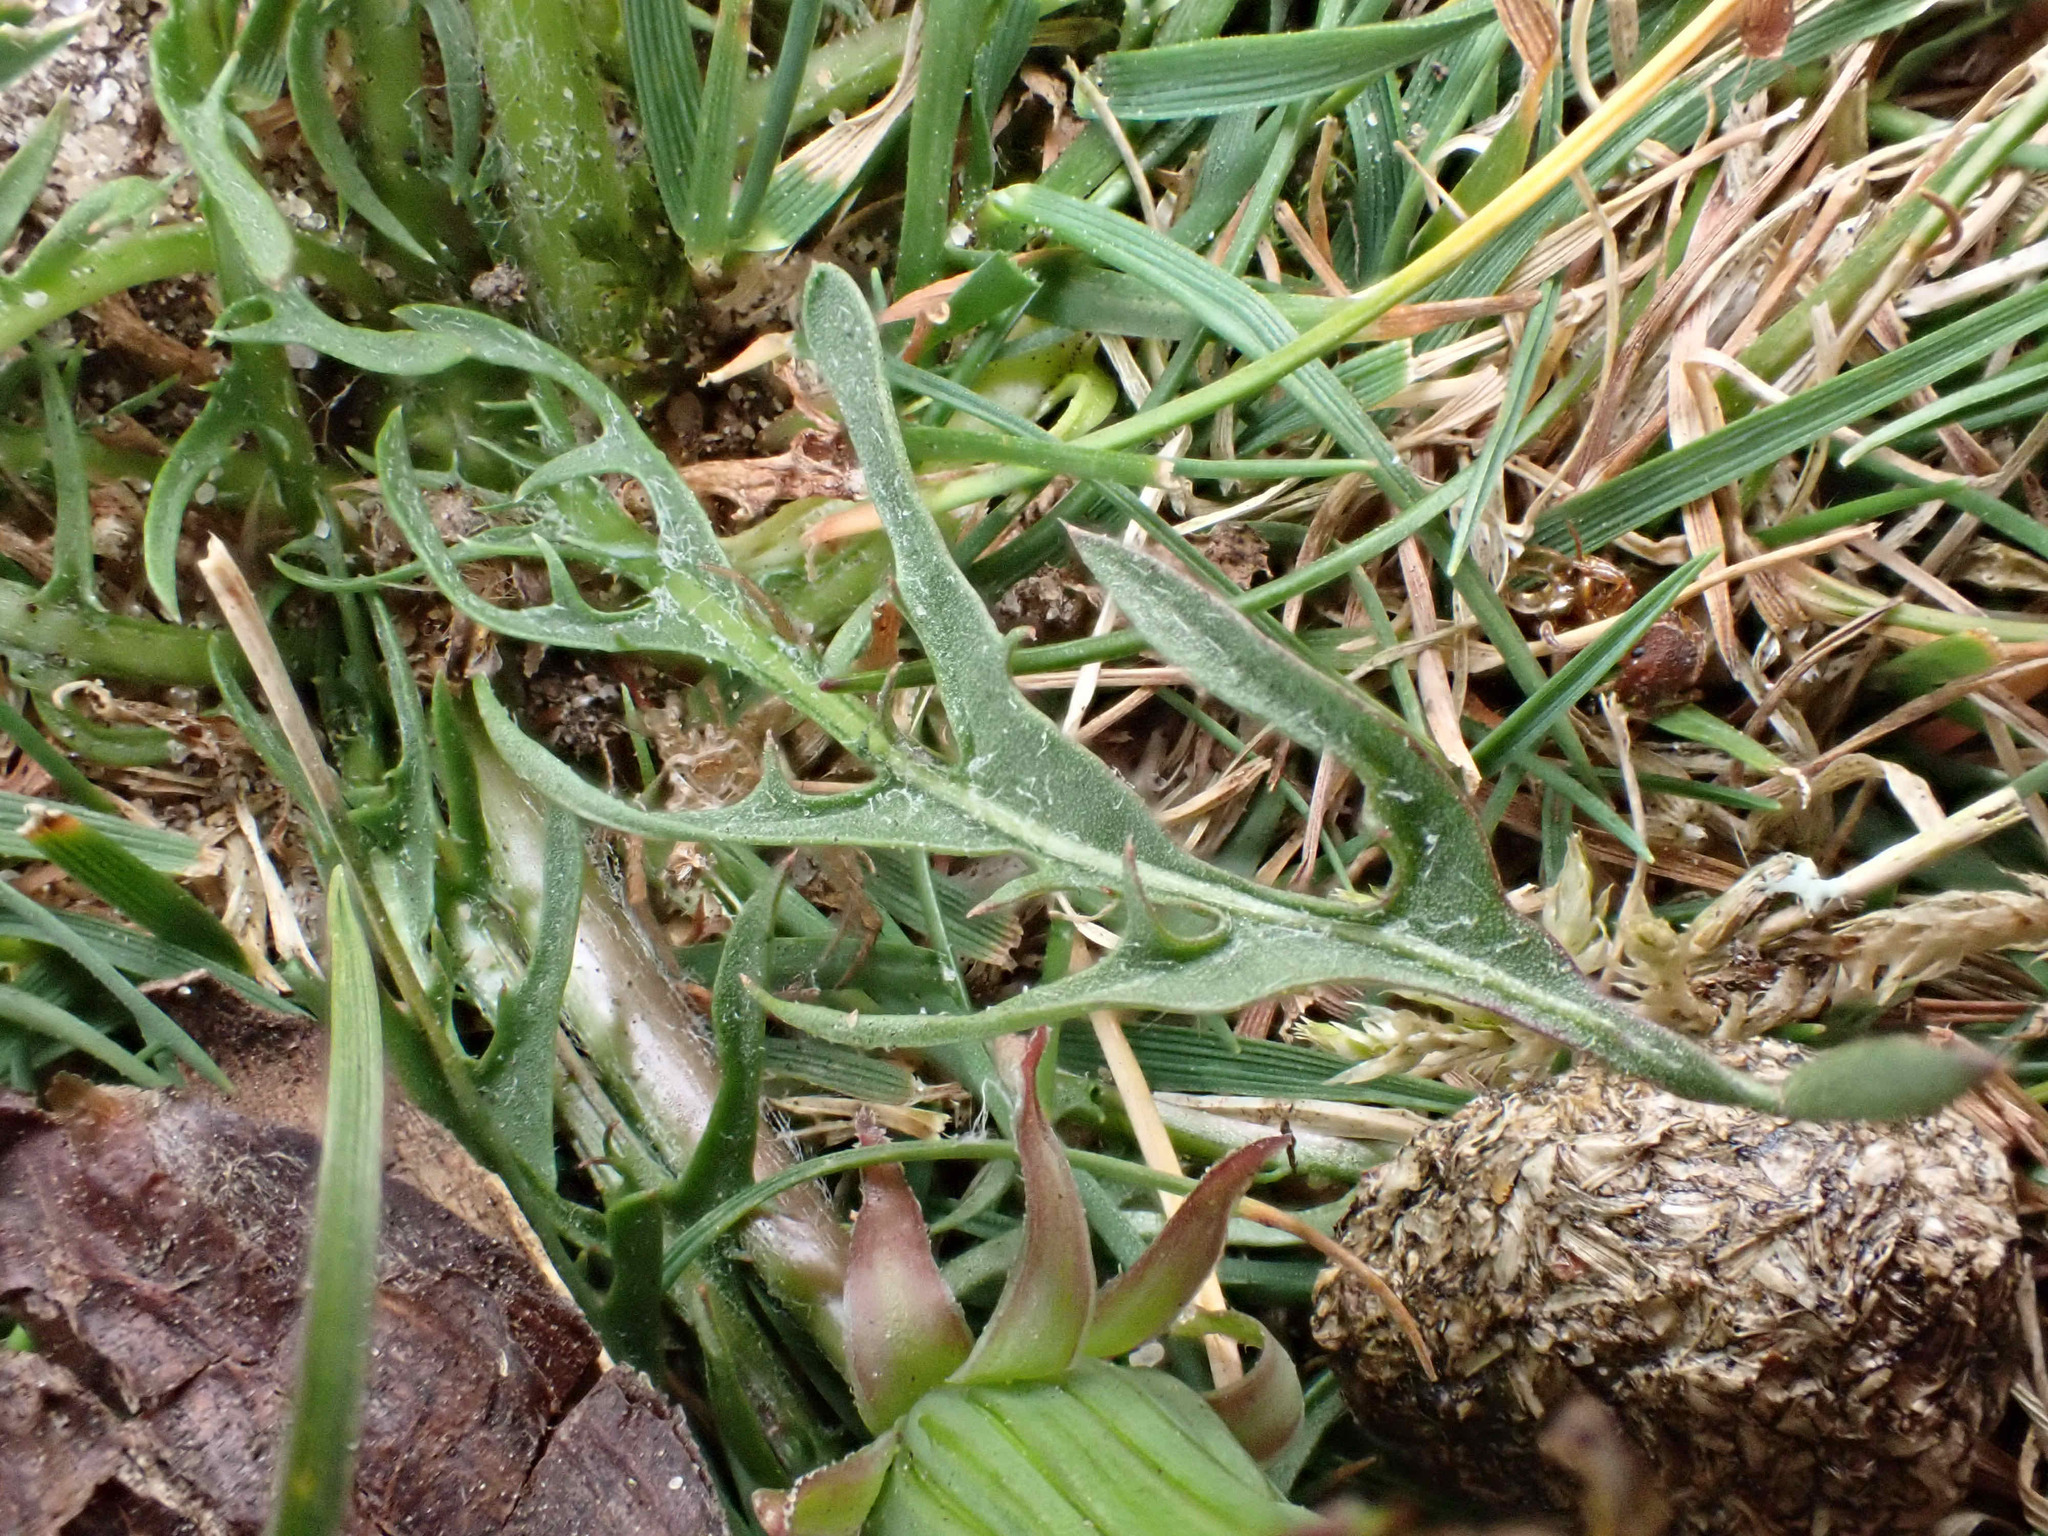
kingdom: Plantae
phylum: Tracheophyta
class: Magnoliopsida
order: Asterales
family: Asteraceae
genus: Taraxacum
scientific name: Taraxacum brachyglossum
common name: Purple-bracted dandelion
